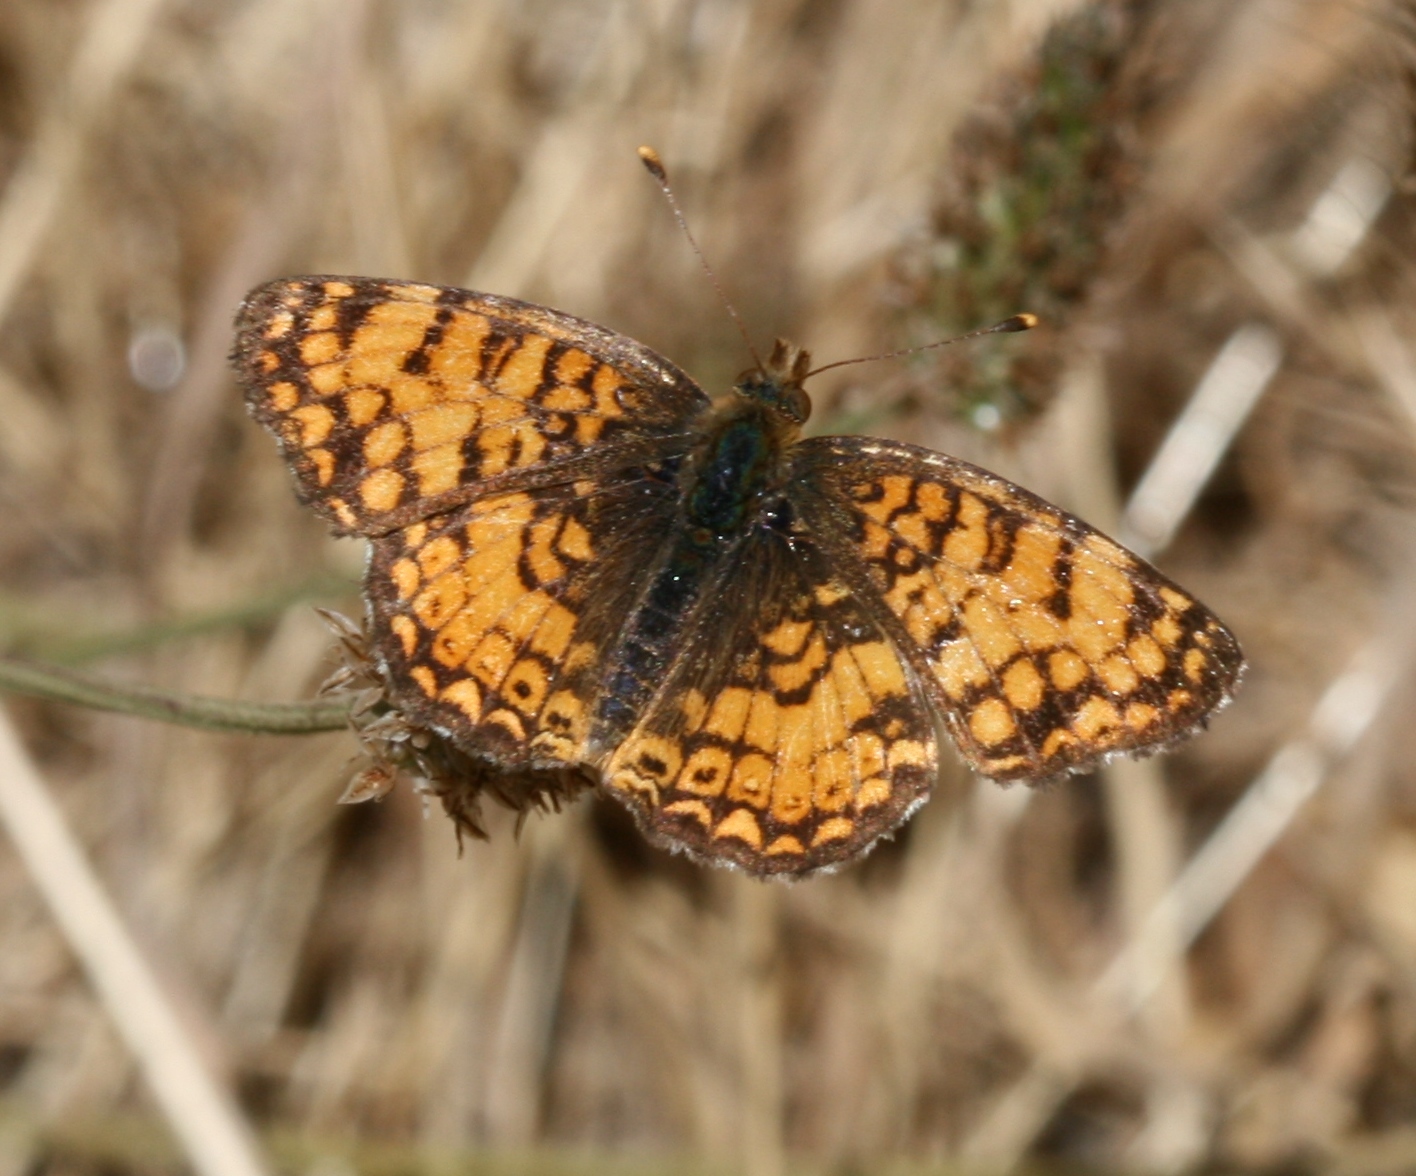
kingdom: Animalia
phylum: Arthropoda
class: Insecta
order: Lepidoptera
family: Nymphalidae
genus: Eresia
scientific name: Eresia aveyrona
